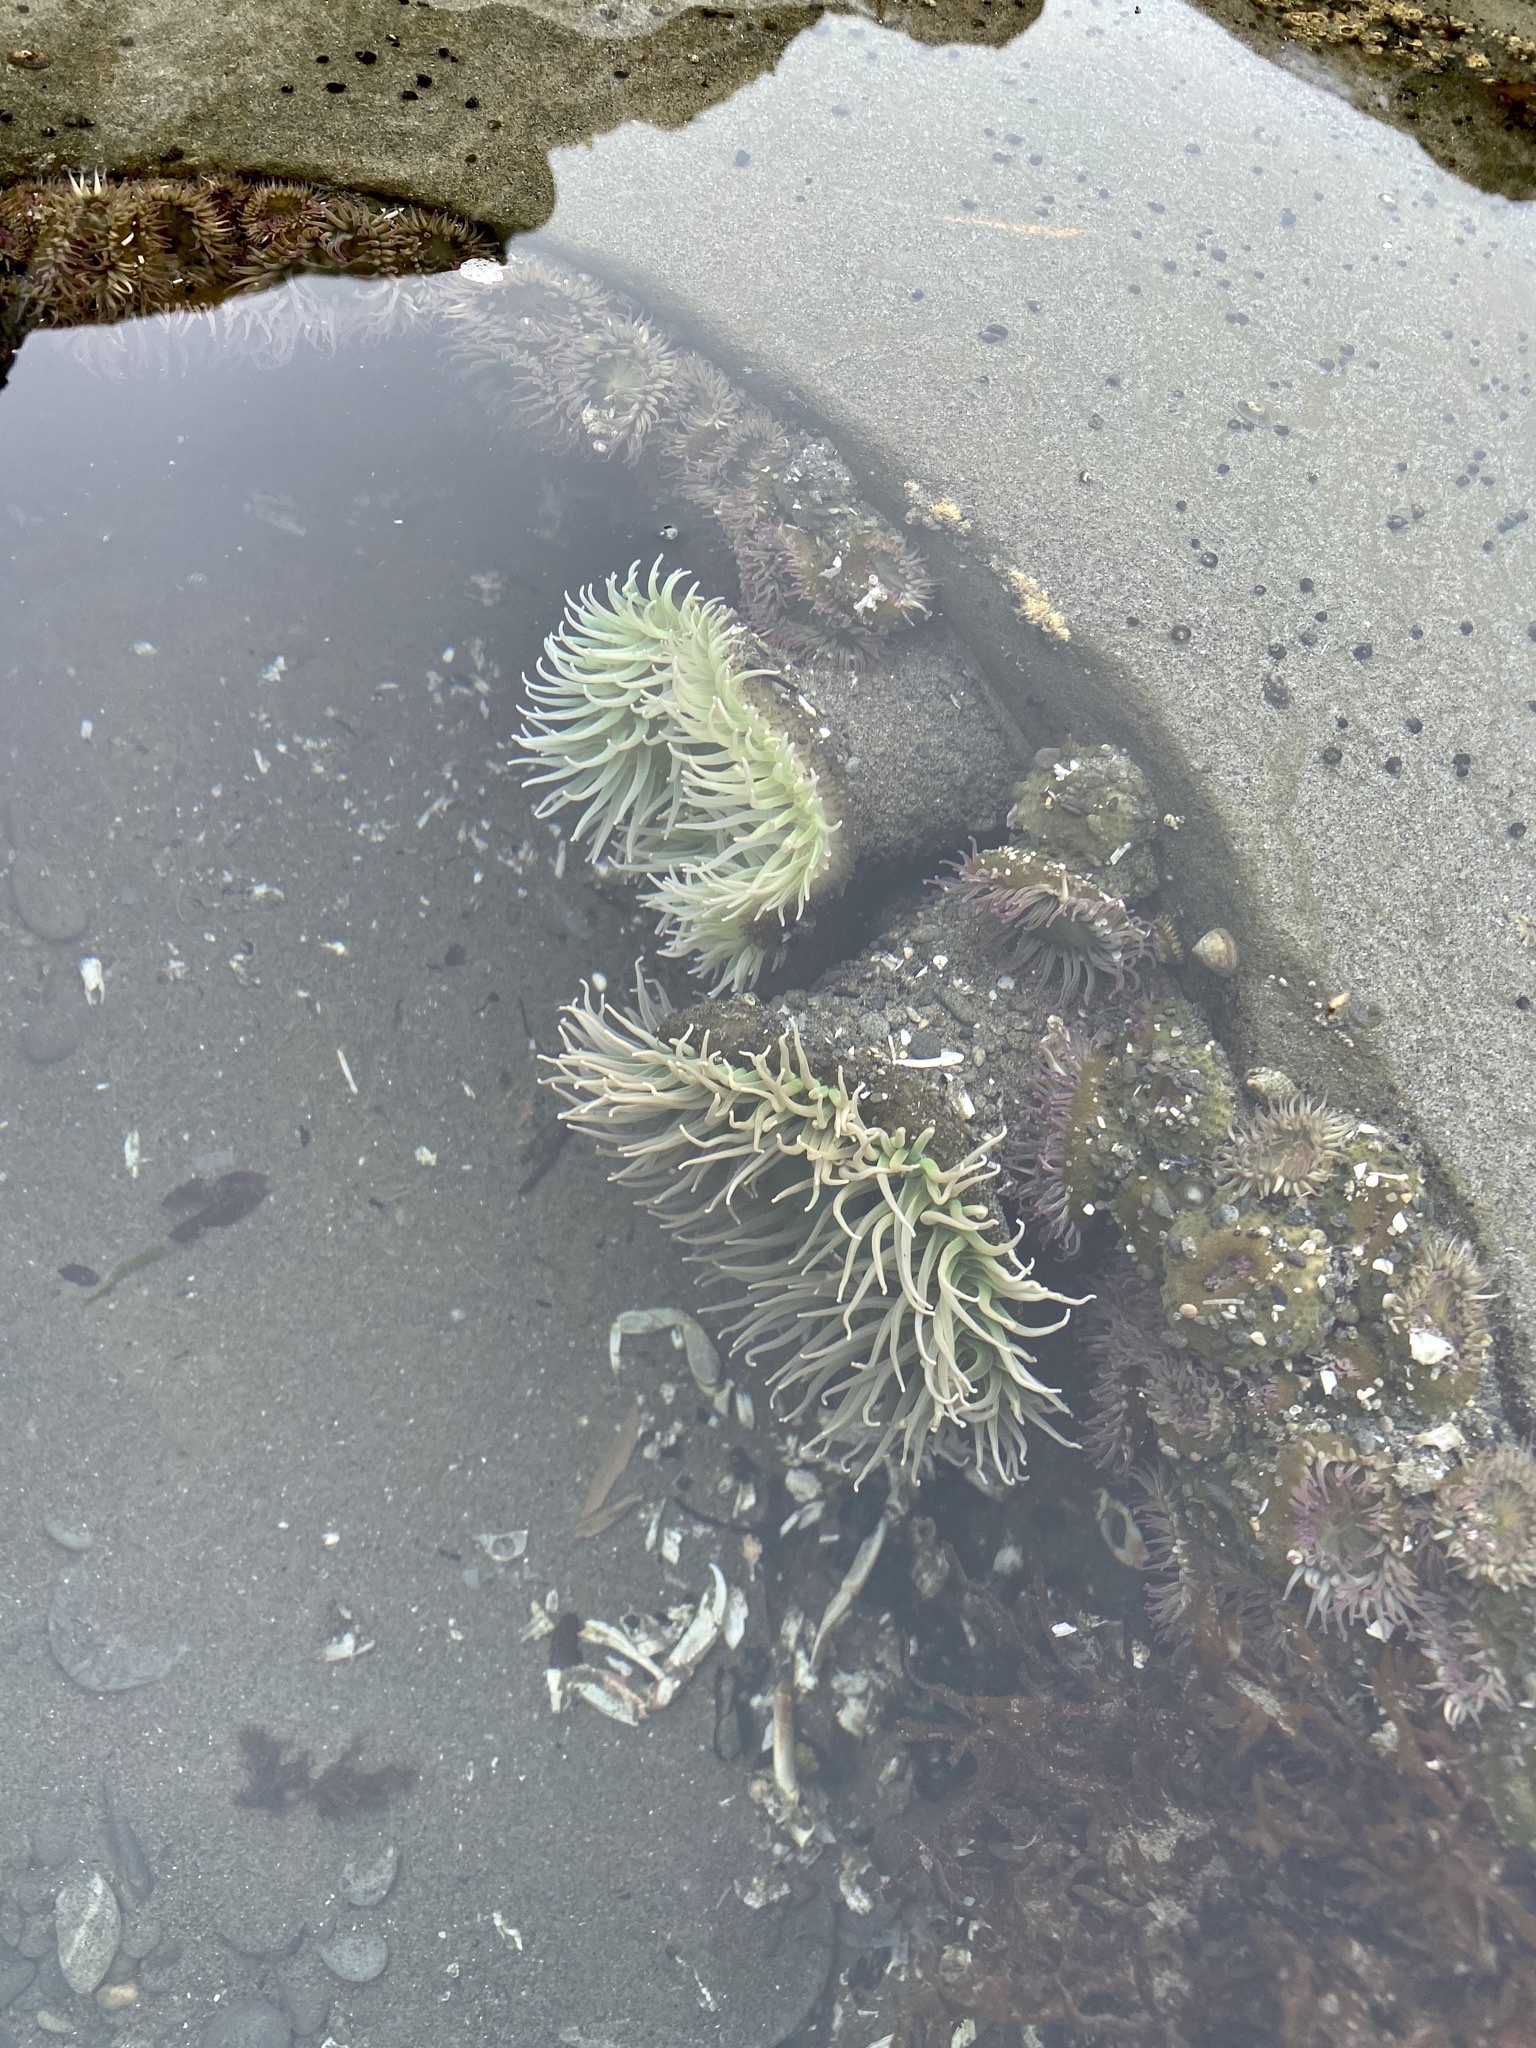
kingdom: Animalia
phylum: Cnidaria
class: Anthozoa
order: Actiniaria
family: Actiniidae
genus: Anthopleura
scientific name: Anthopleura xanthogrammica
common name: Giant green anemone
